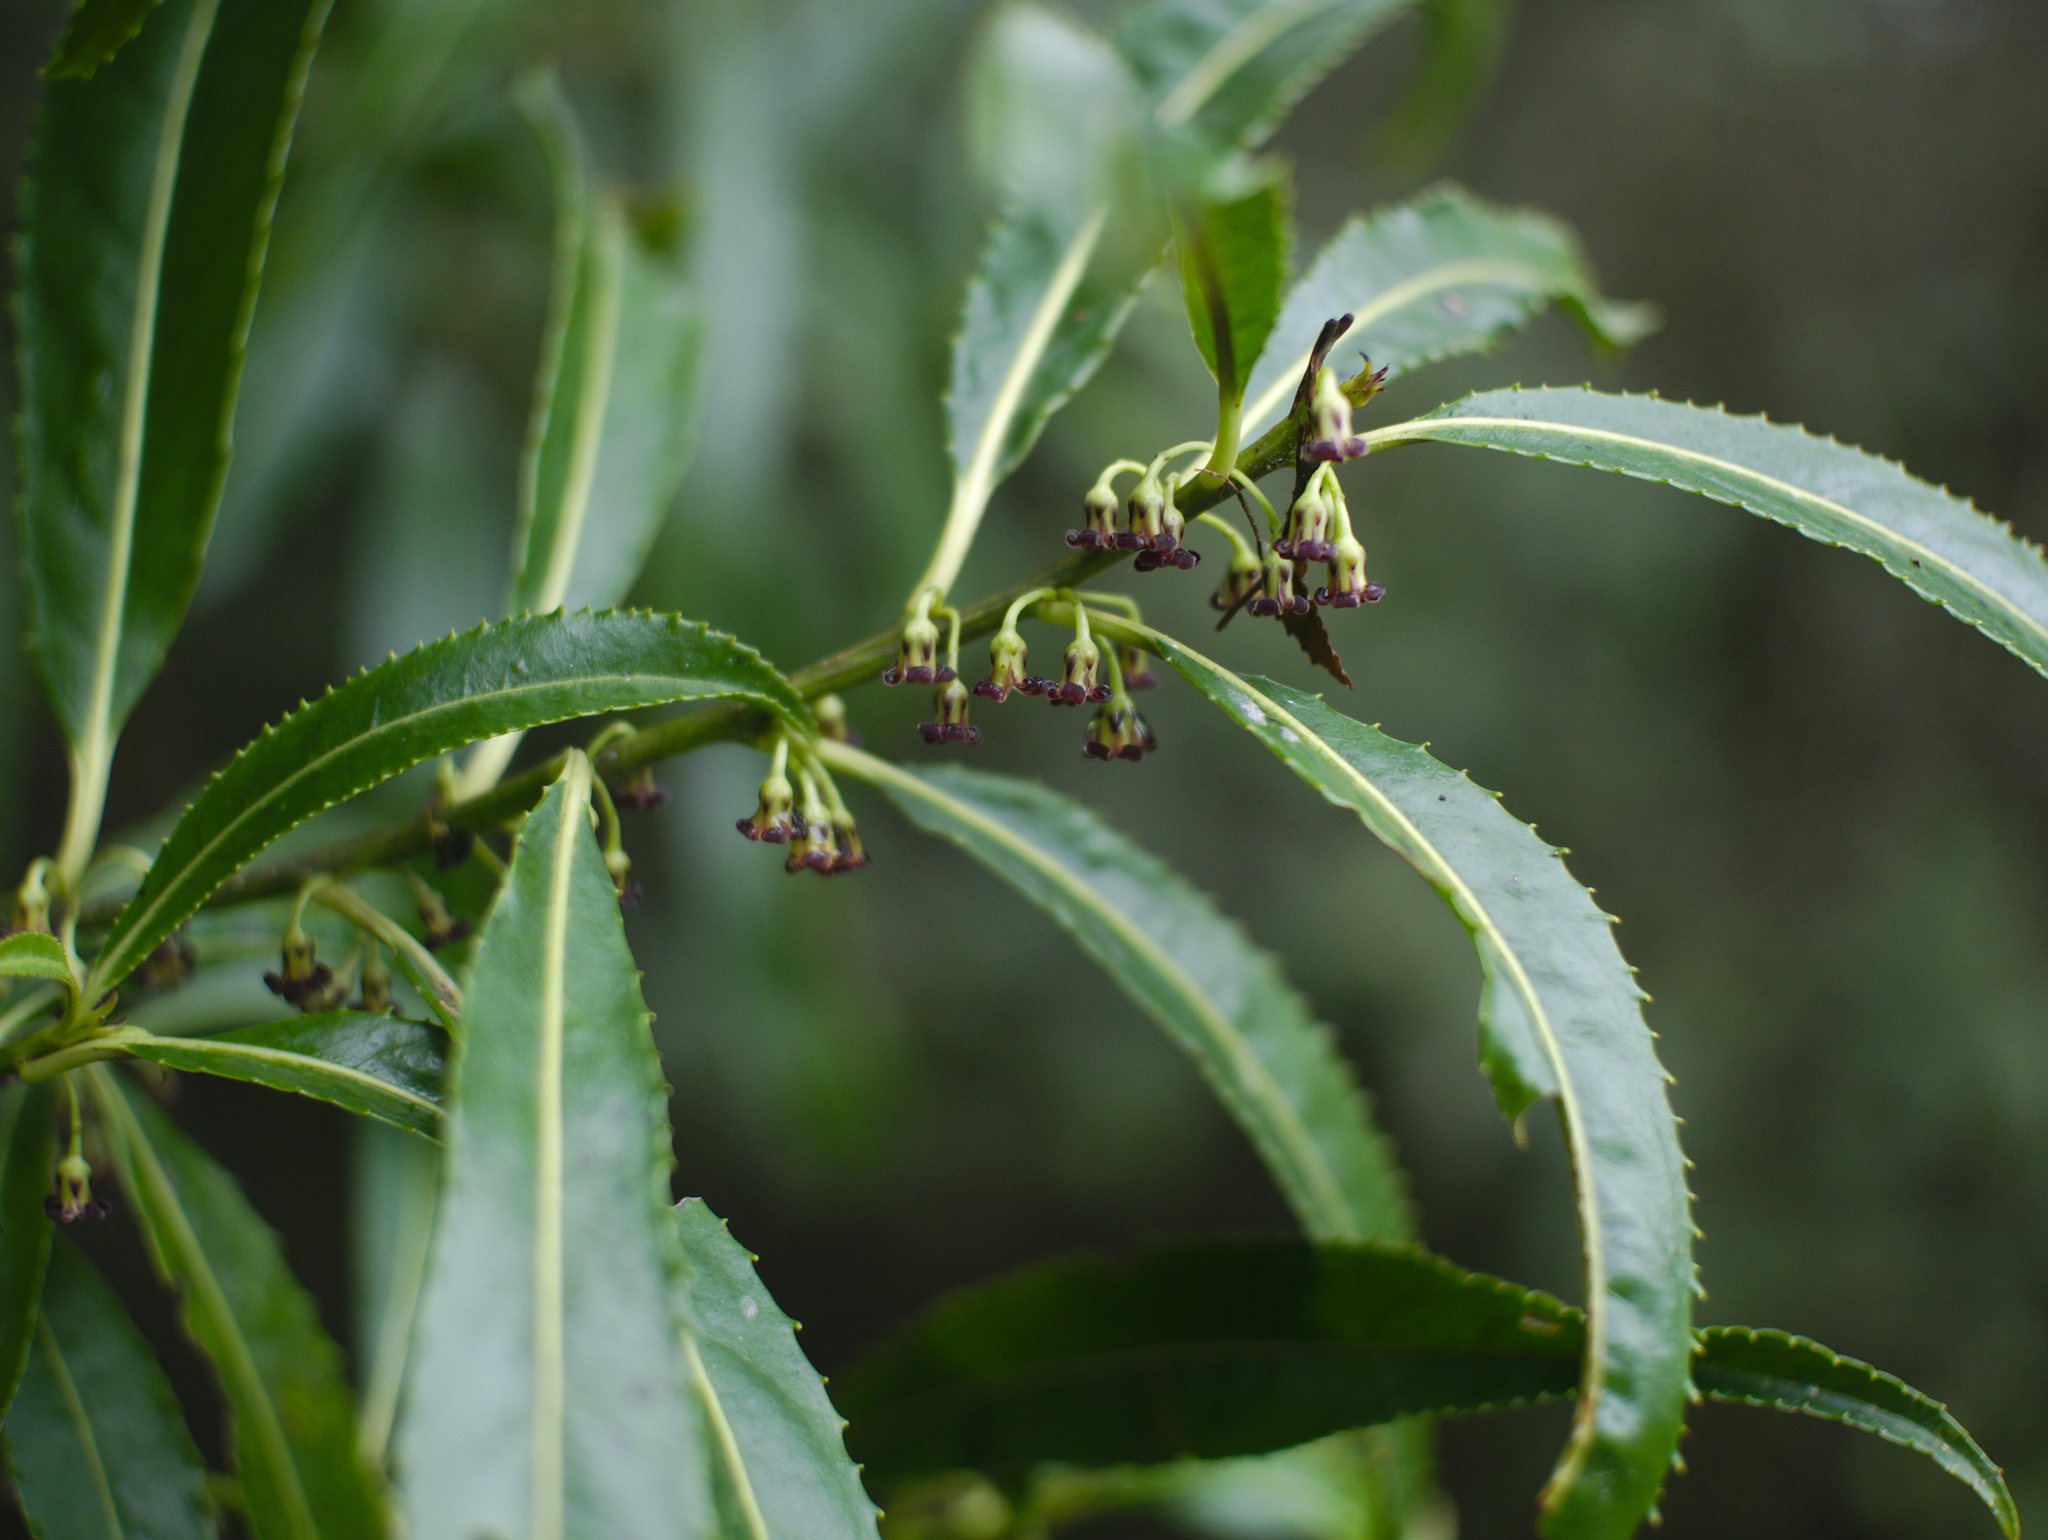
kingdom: Plantae
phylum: Tracheophyta
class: Magnoliopsida
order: Malpighiales
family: Violaceae
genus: Melicytus
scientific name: Melicytus lanceolatus
